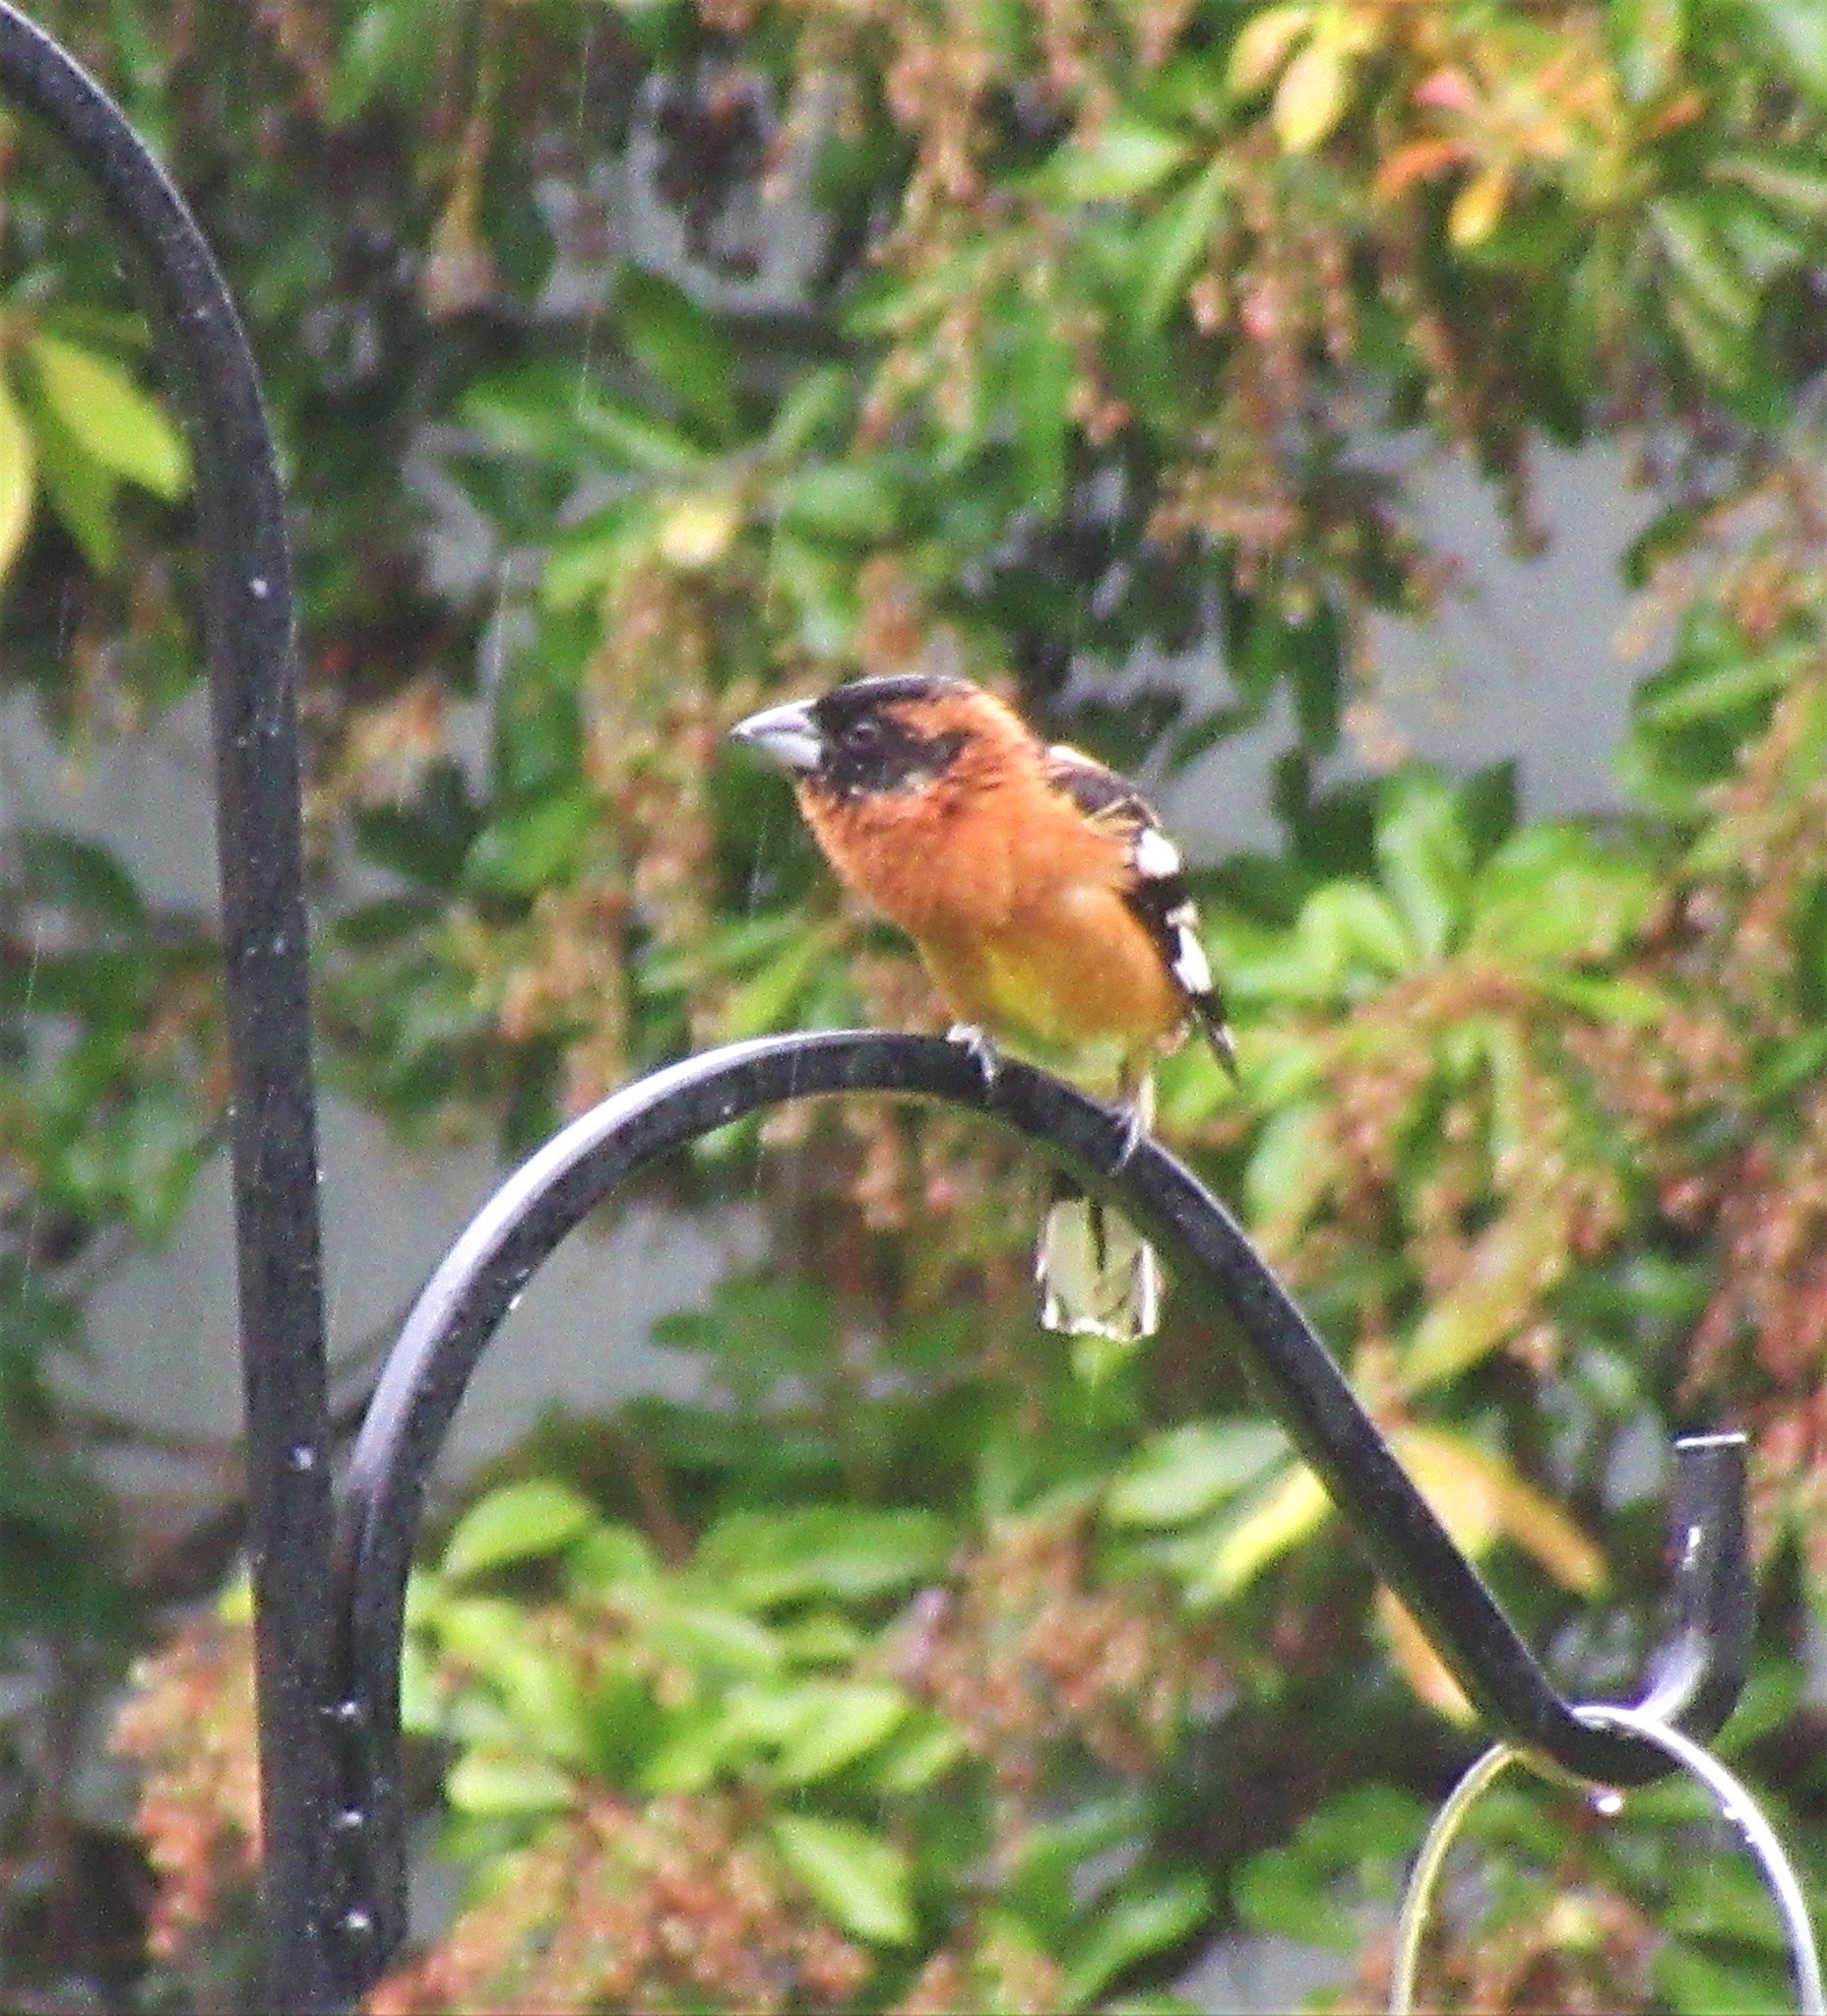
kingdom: Animalia
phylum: Chordata
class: Aves
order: Passeriformes
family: Cardinalidae
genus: Pheucticus
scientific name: Pheucticus melanocephalus
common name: Black-headed grosbeak
